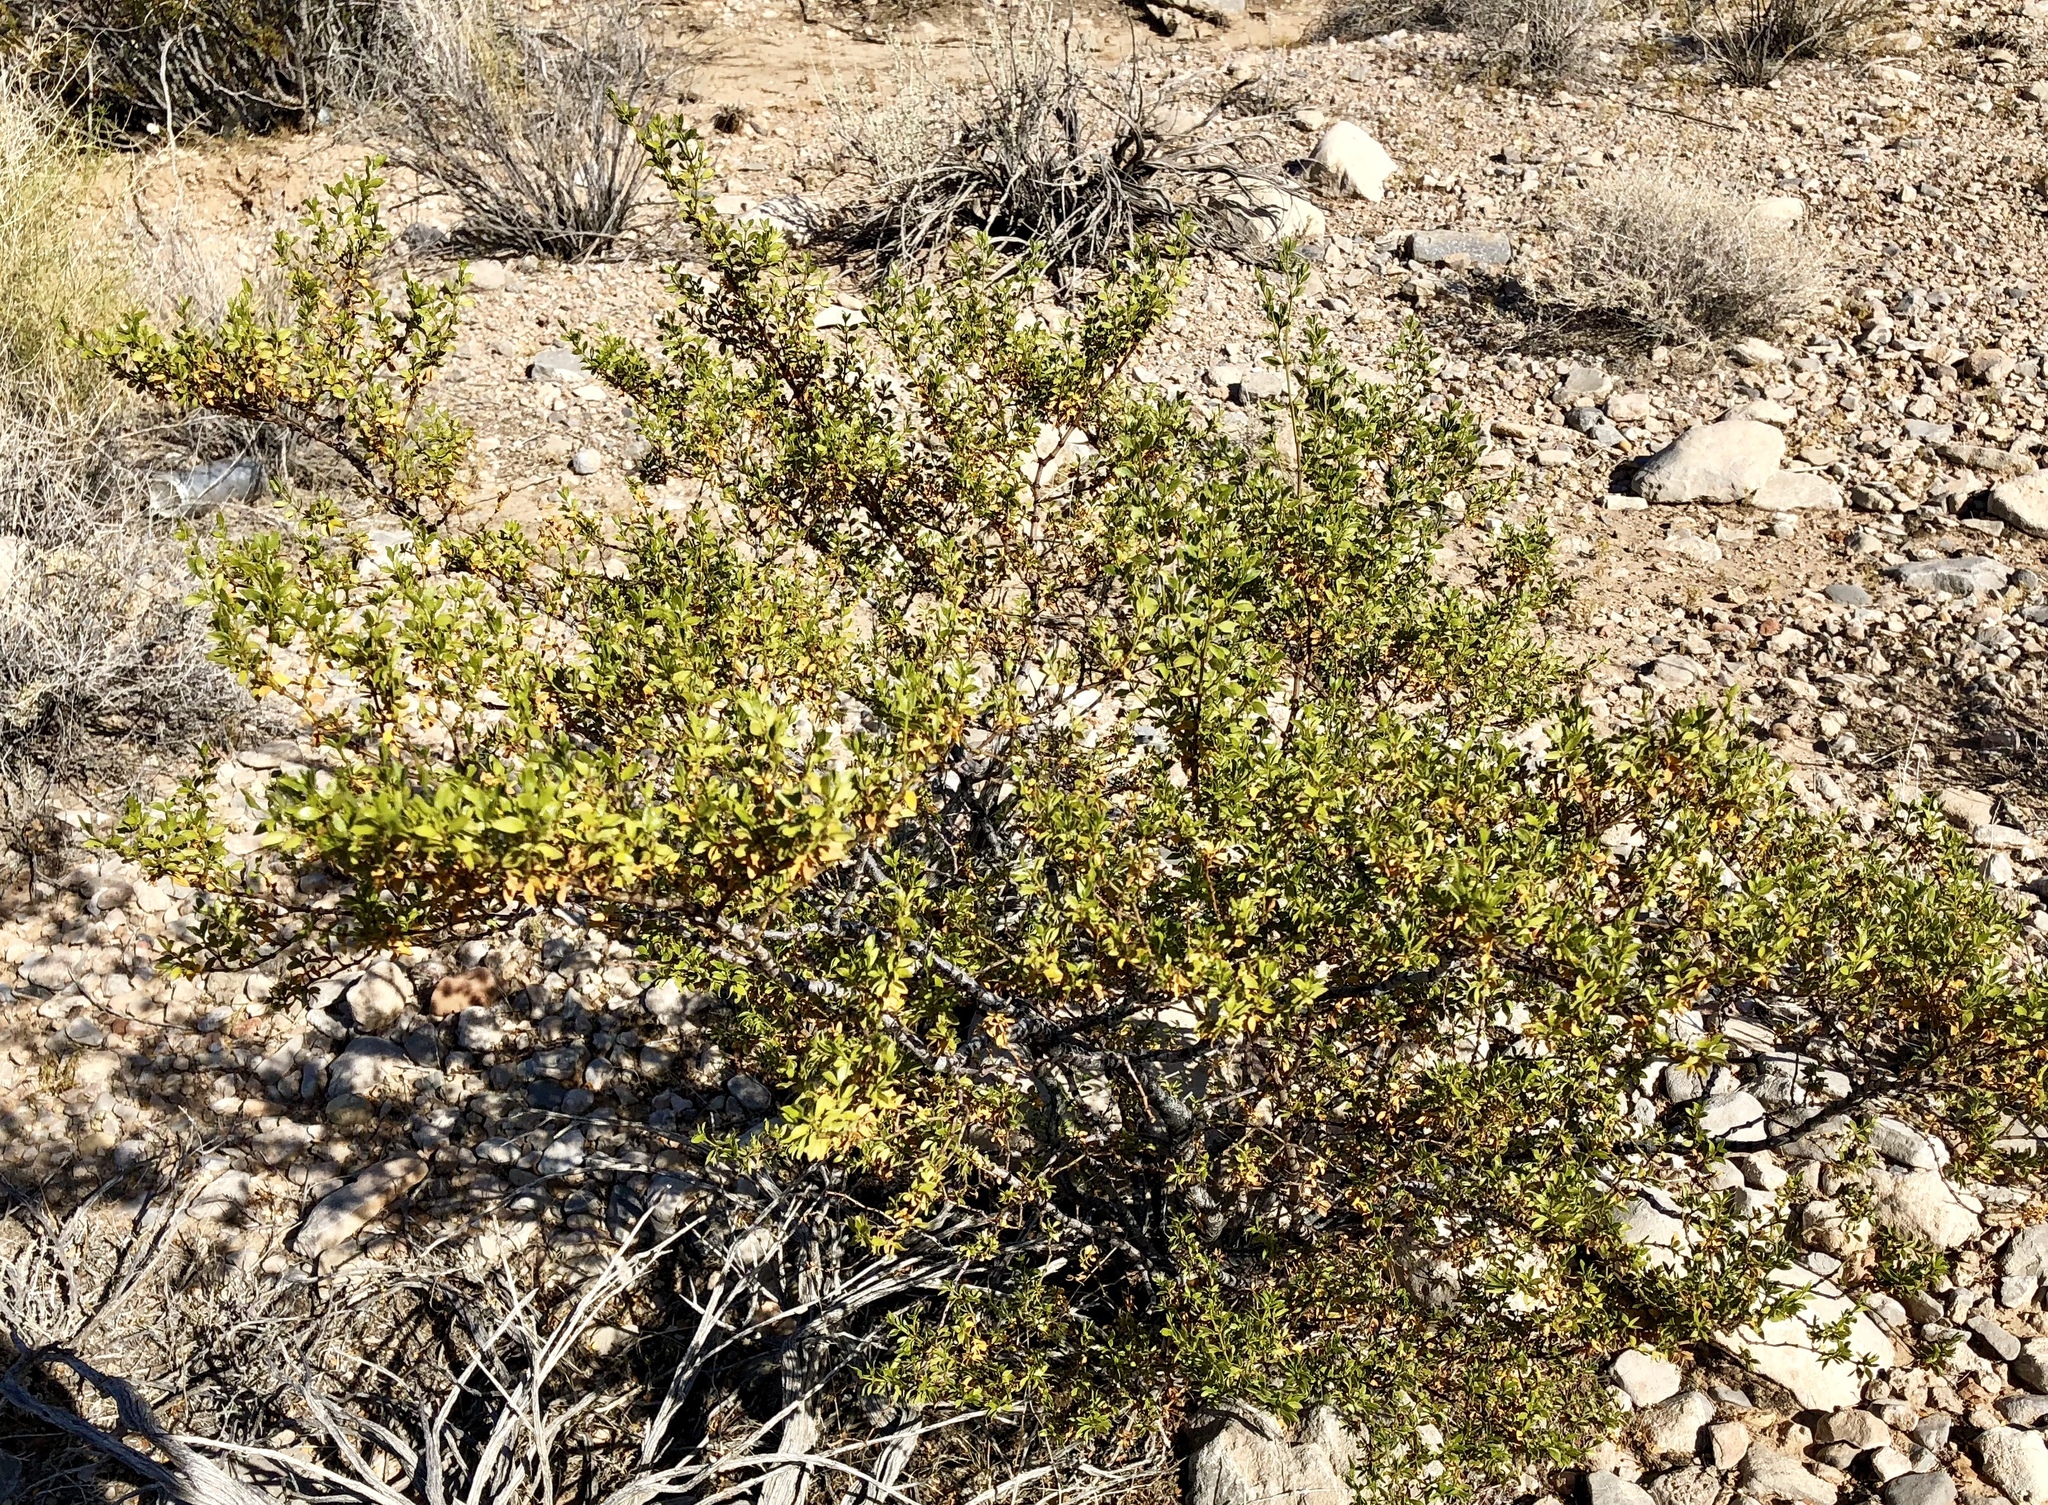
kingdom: Plantae
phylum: Tracheophyta
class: Magnoliopsida
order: Zygophyllales
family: Zygophyllaceae
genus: Larrea
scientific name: Larrea tridentata
